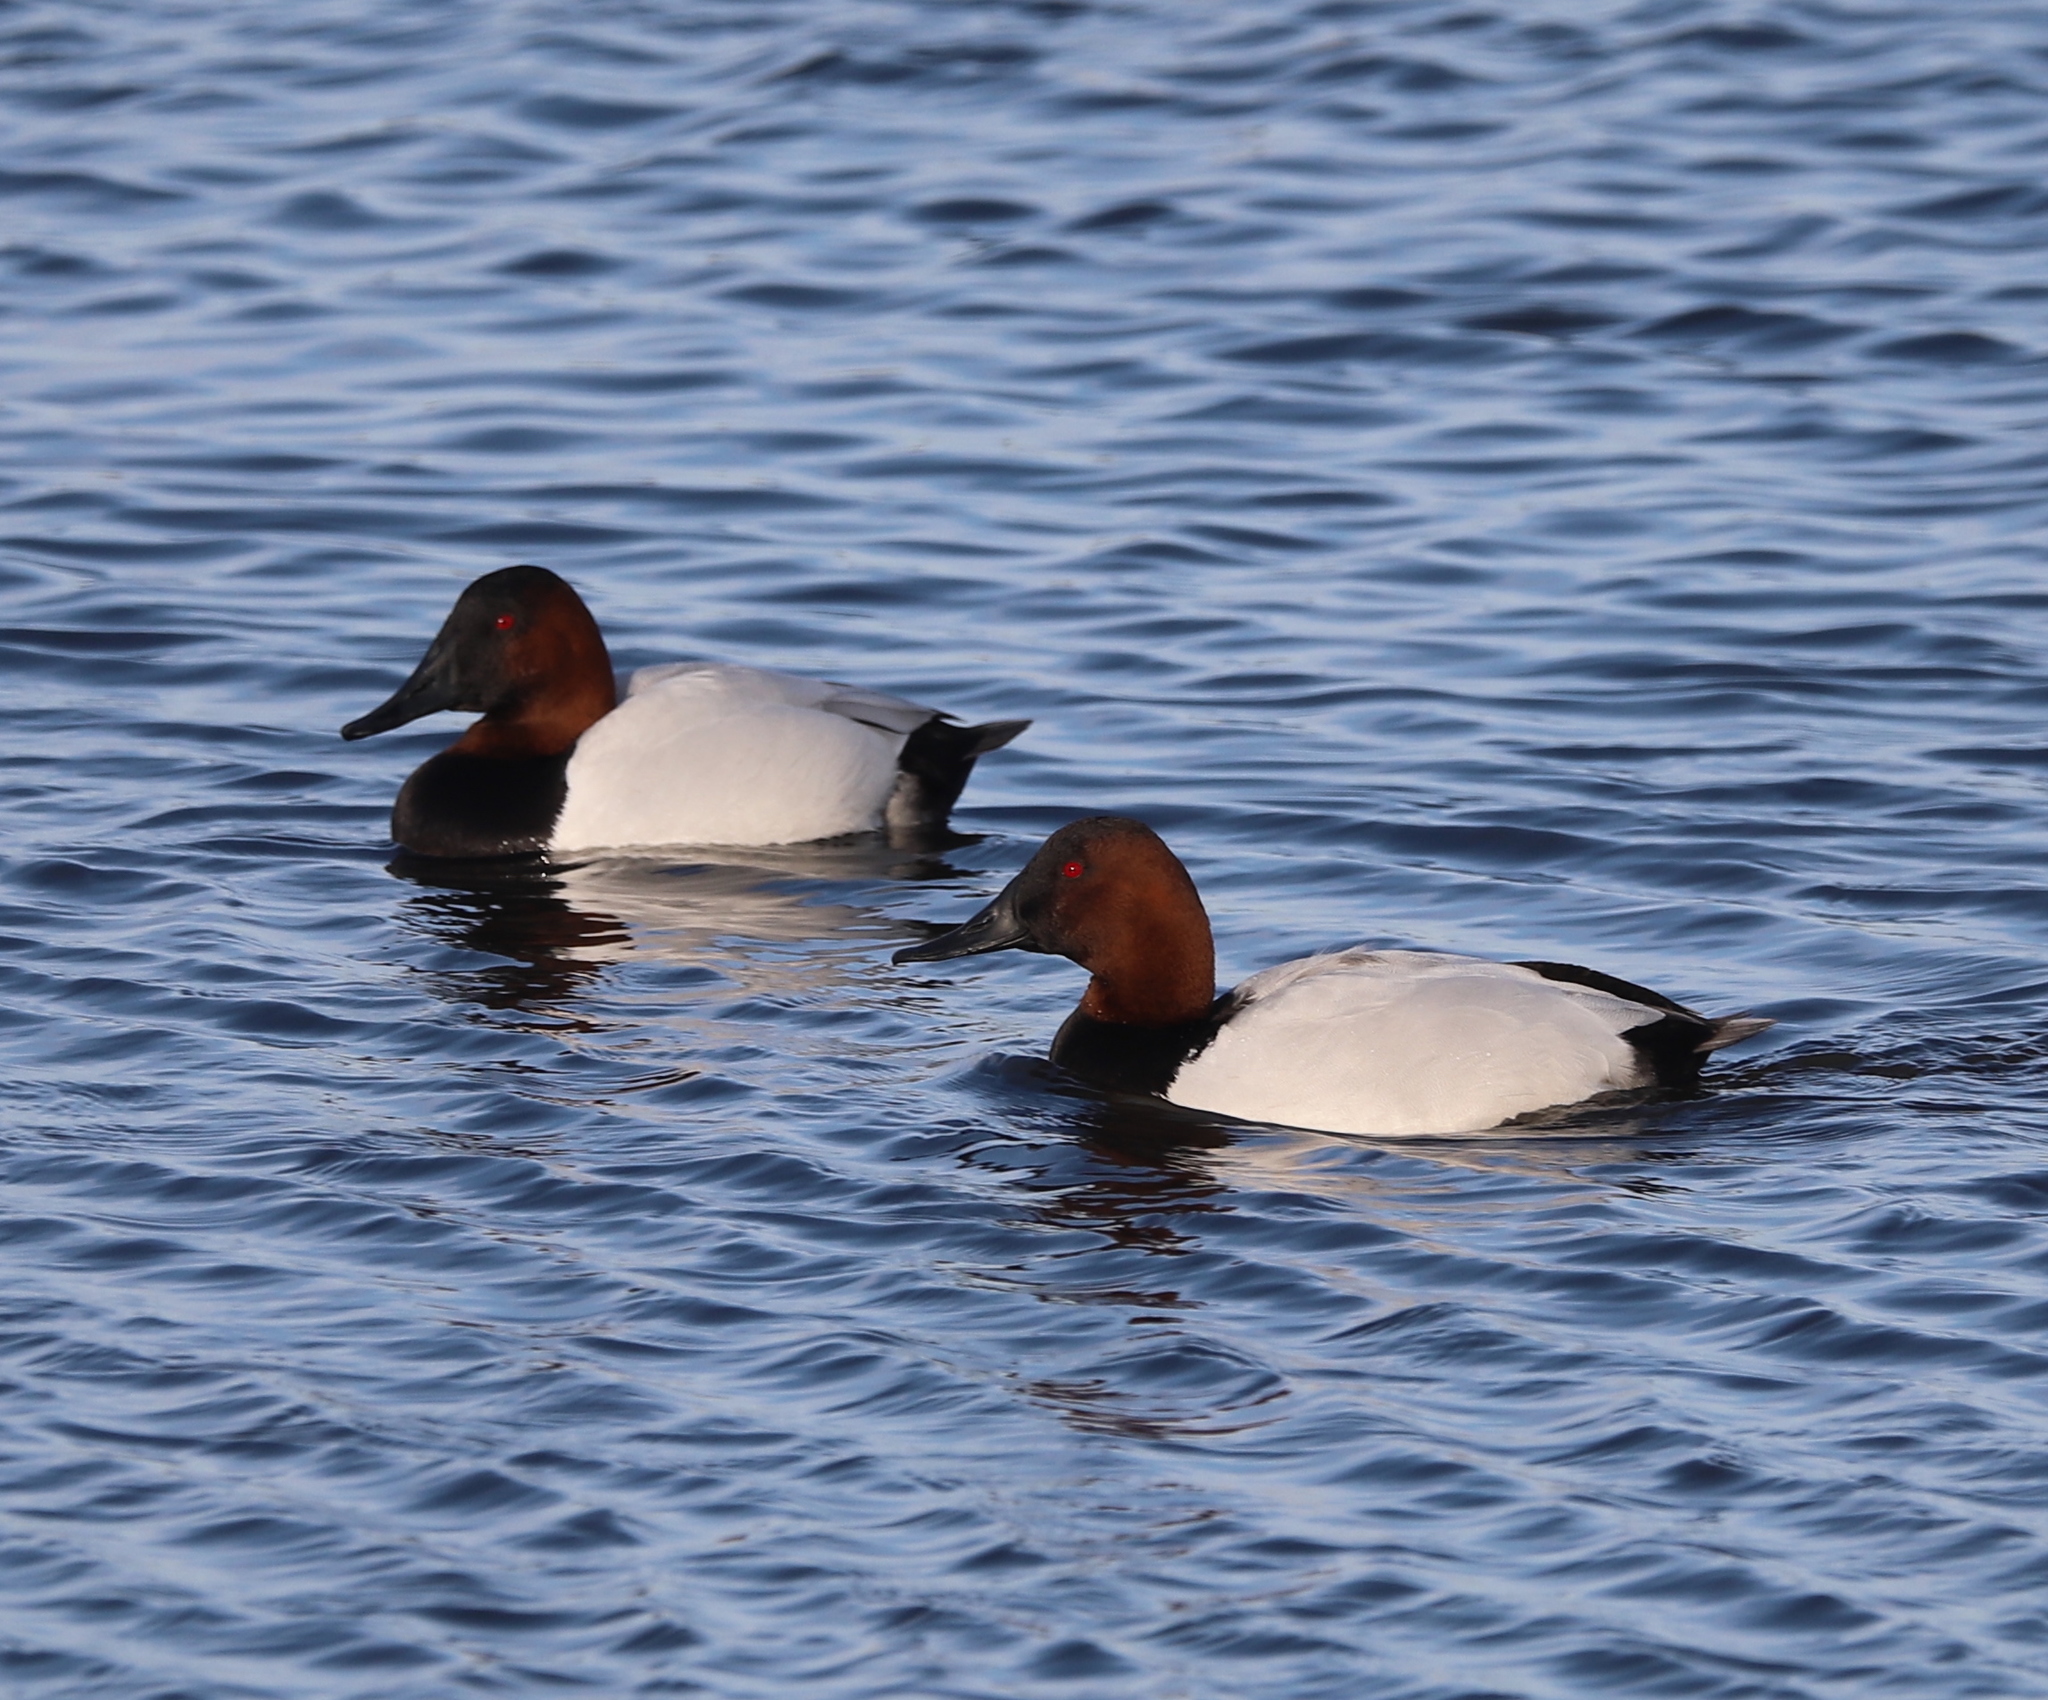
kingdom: Animalia
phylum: Chordata
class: Aves
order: Anseriformes
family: Anatidae
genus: Aythya
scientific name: Aythya valisineria
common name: Canvasback
